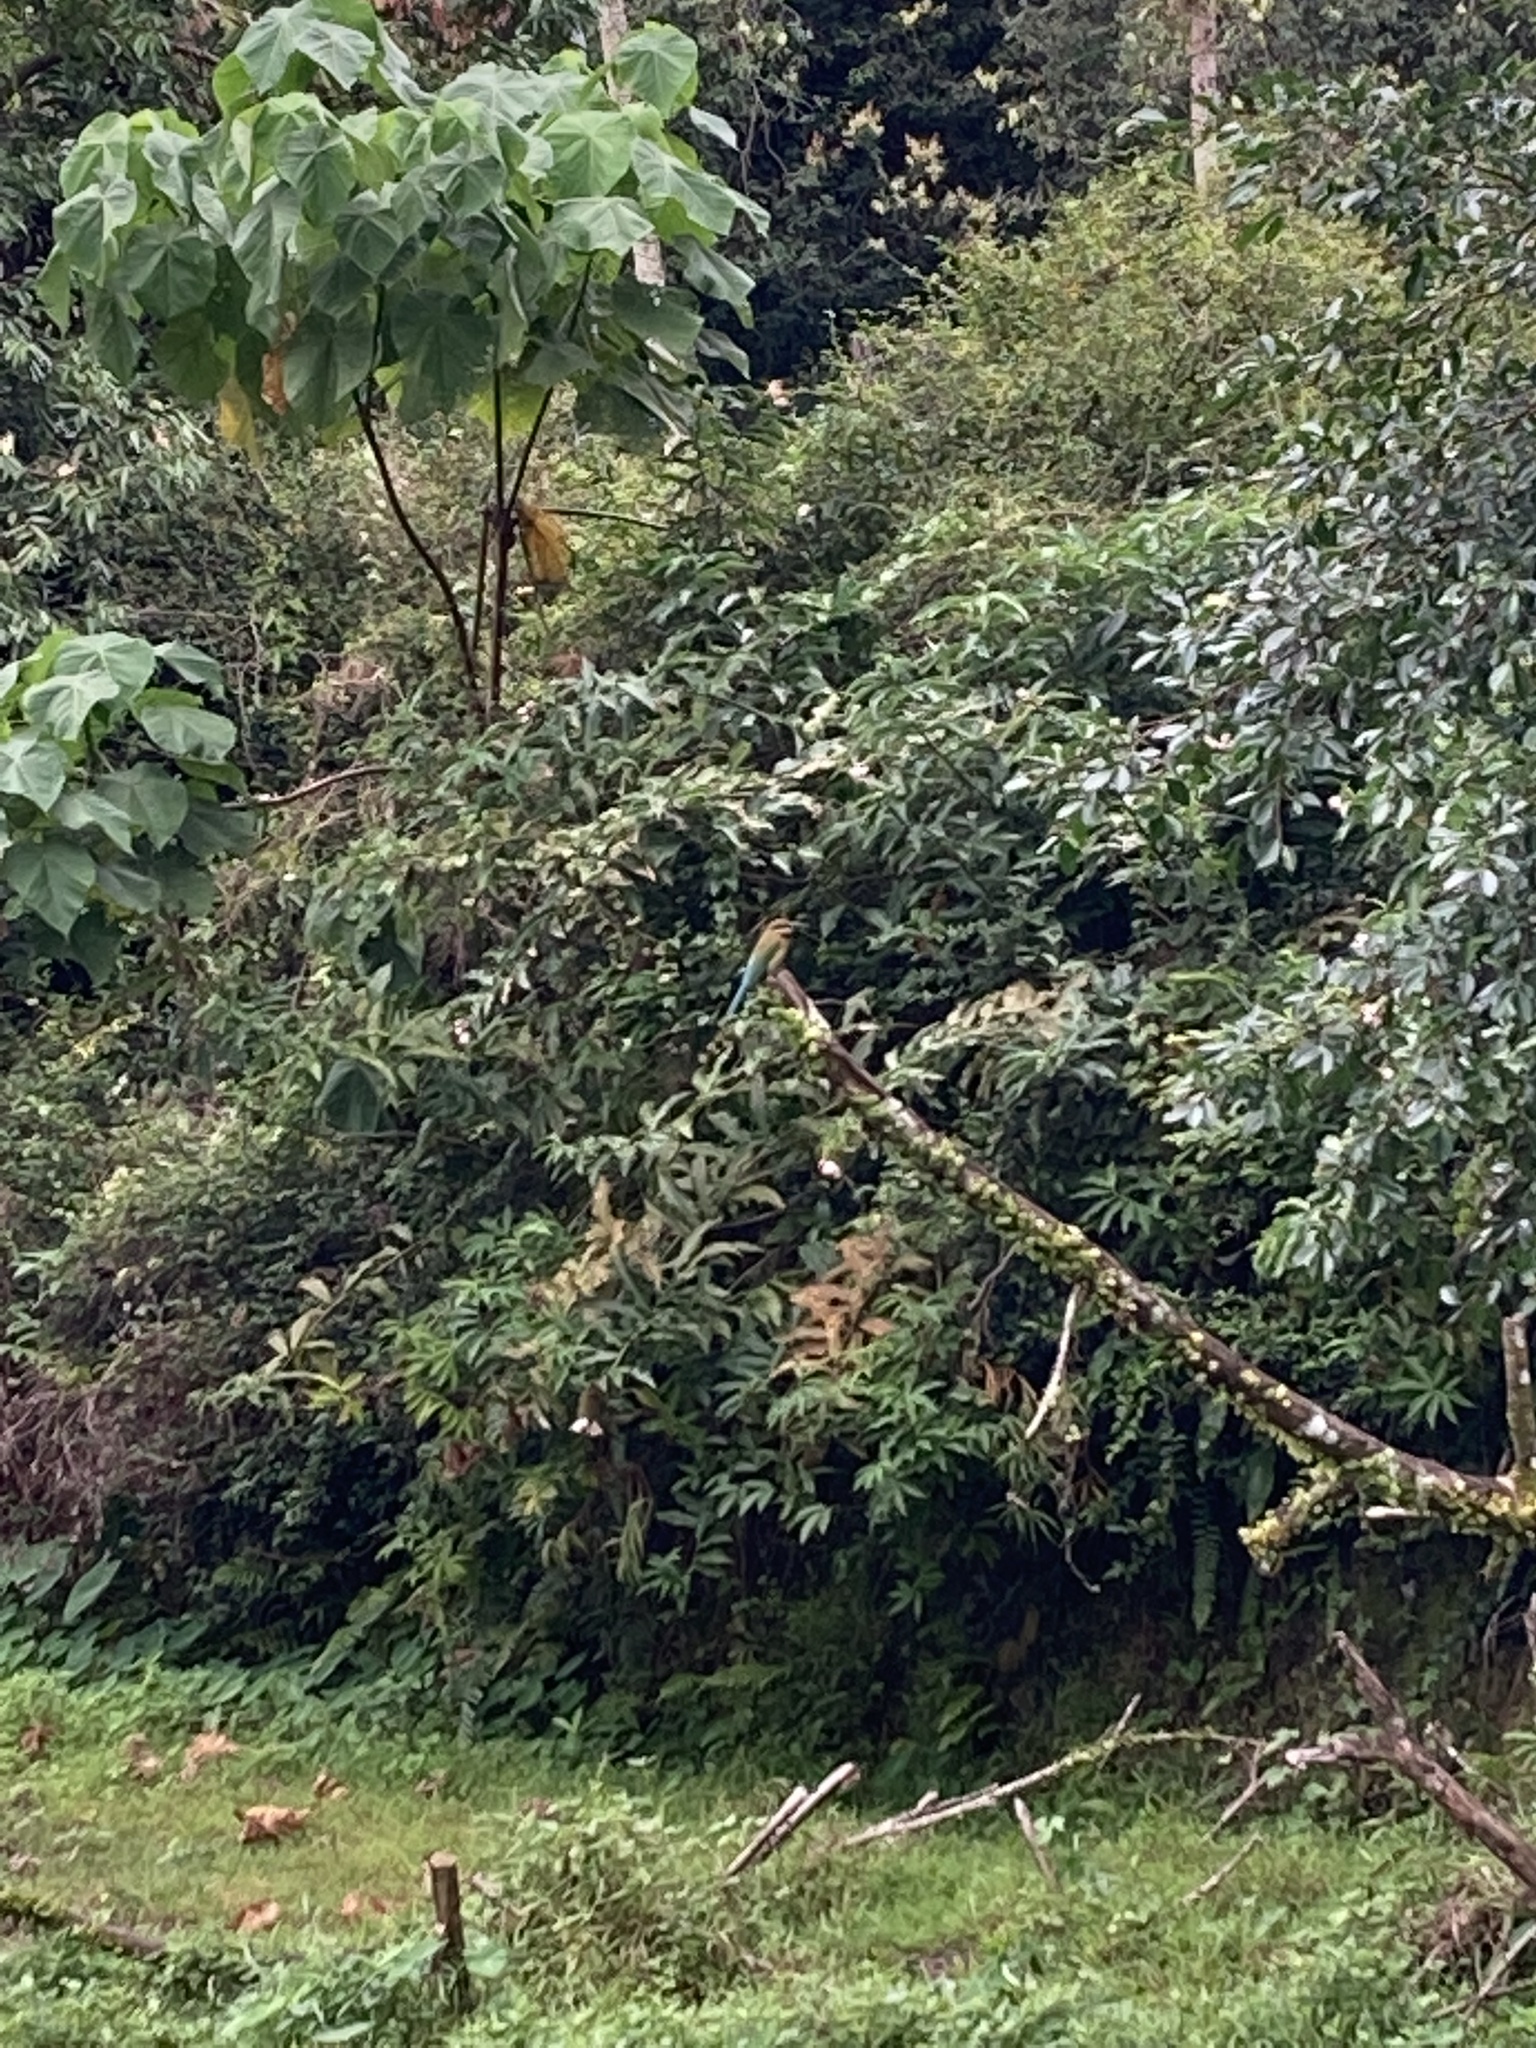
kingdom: Animalia
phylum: Chordata
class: Aves
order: Coraciiformes
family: Meropidae
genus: Merops
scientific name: Merops philippinus
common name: Blue-tailed bee-eater
